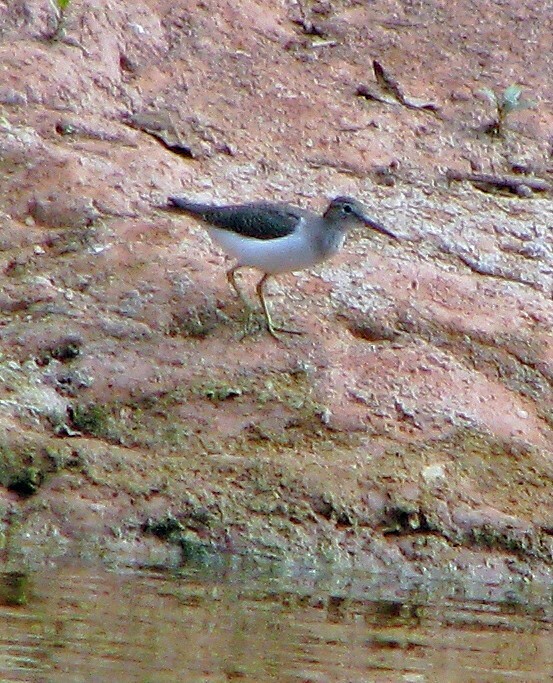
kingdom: Animalia
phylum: Chordata
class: Aves
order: Charadriiformes
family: Scolopacidae
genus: Actitis
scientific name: Actitis macularius
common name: Spotted sandpiper
